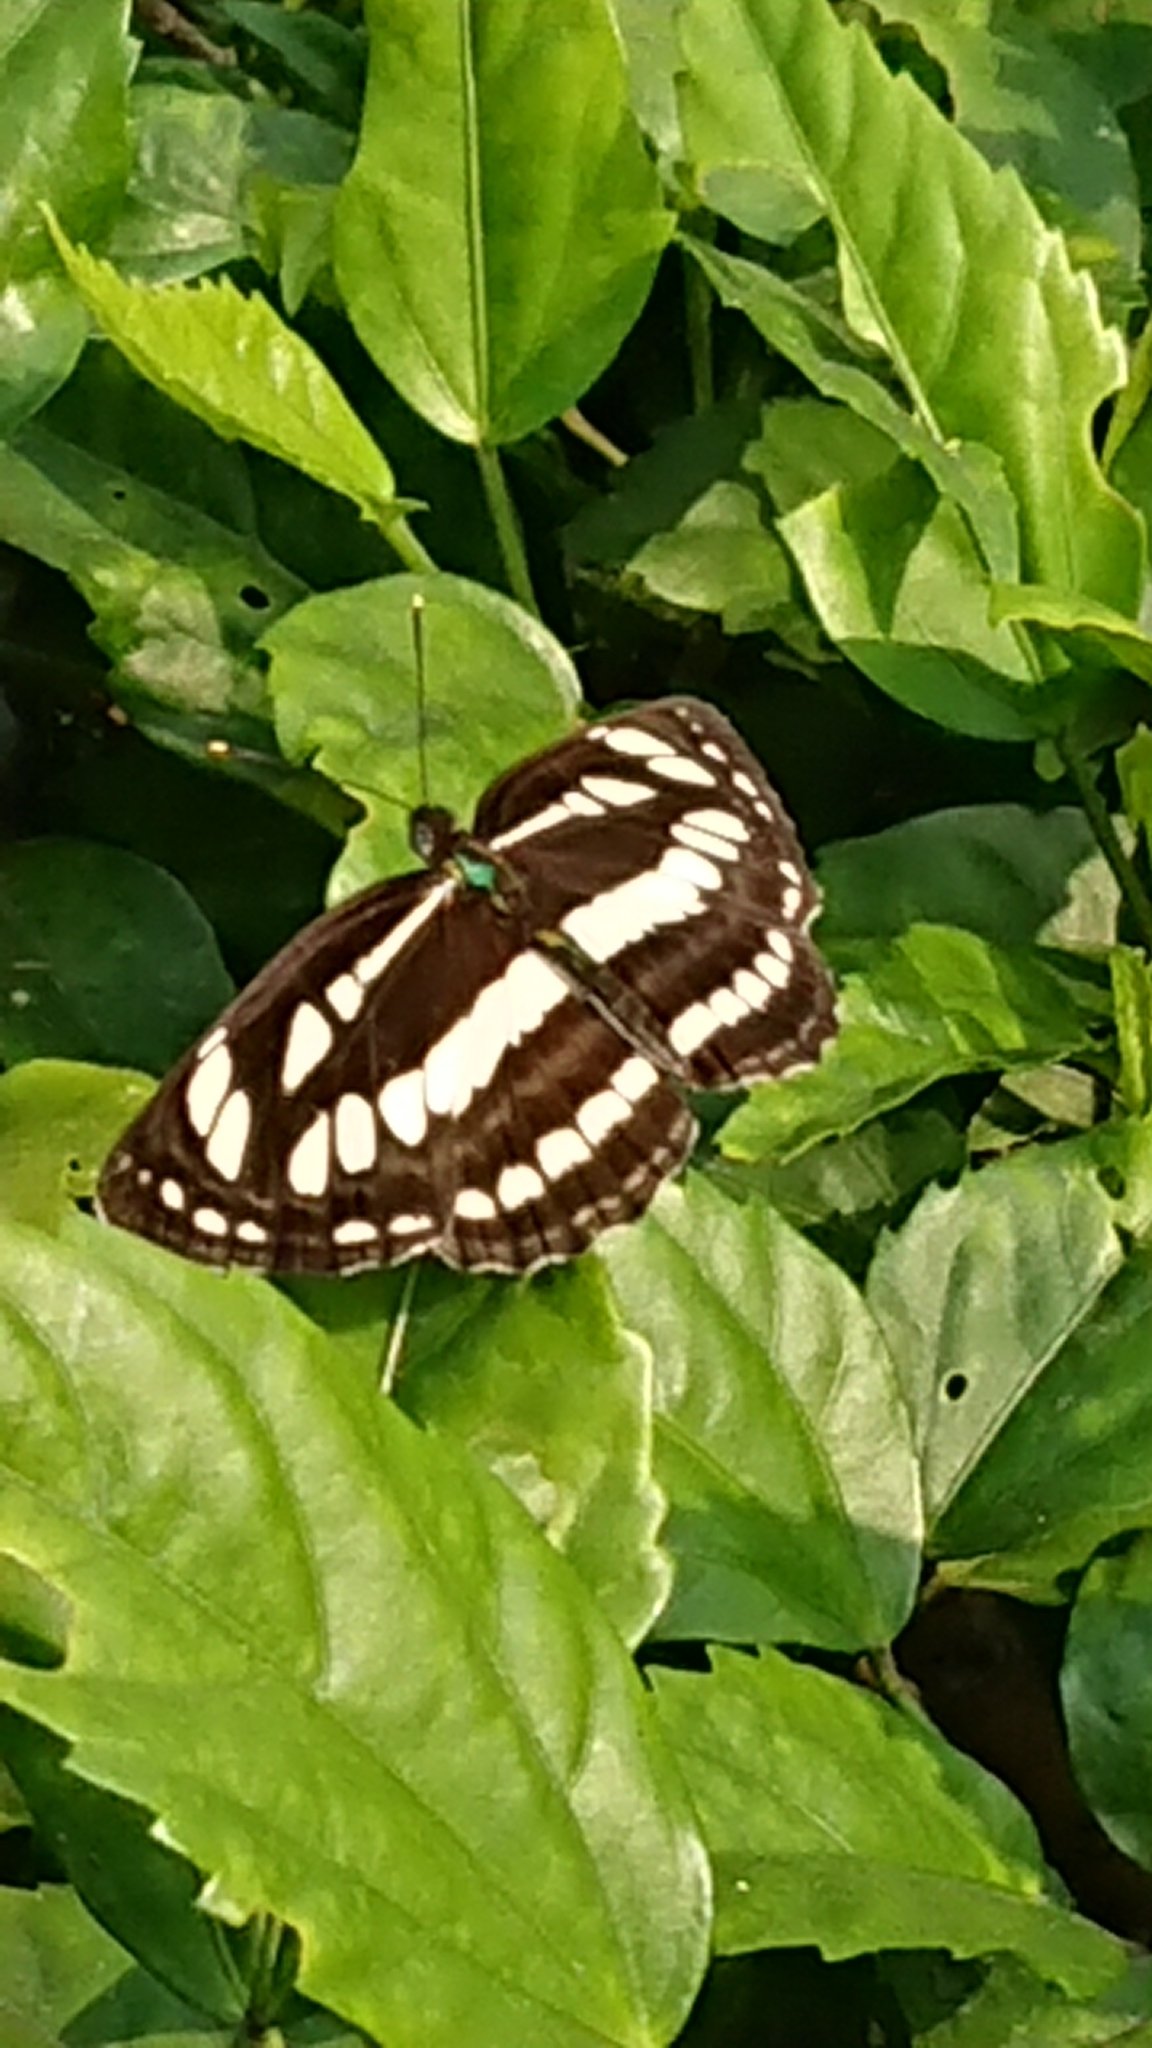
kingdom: Animalia
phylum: Arthropoda
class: Insecta
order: Lepidoptera
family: Nymphalidae
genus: Neptis
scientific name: Neptis hylas
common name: Common sailer
